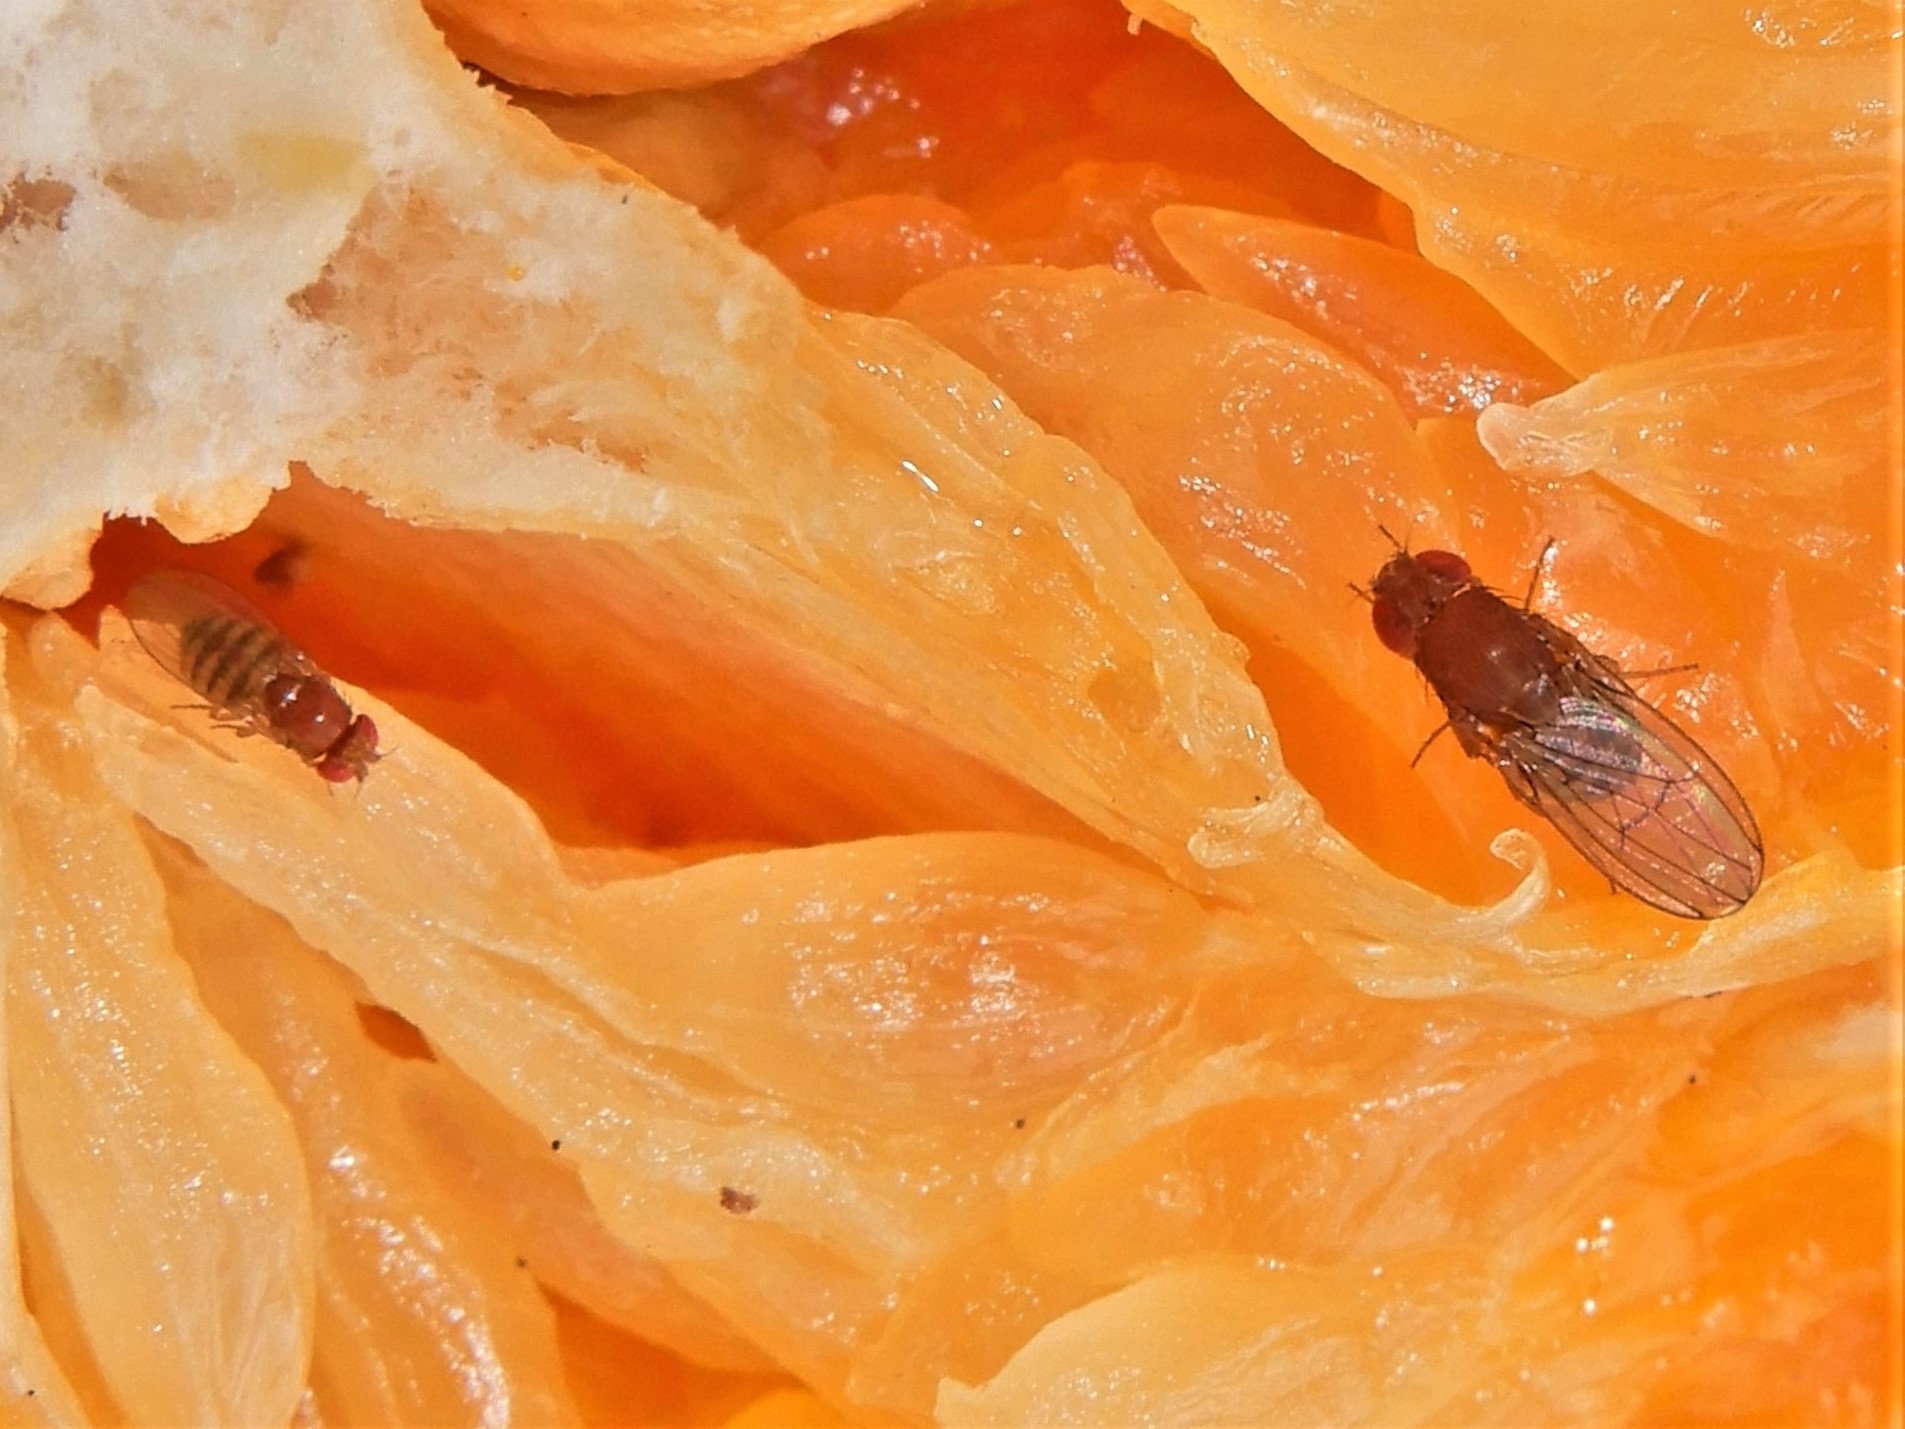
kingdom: Animalia
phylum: Arthropoda
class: Insecta
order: Diptera
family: Drosophilidae
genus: Drosophila
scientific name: Drosophila immigrans
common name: Pomace fly
